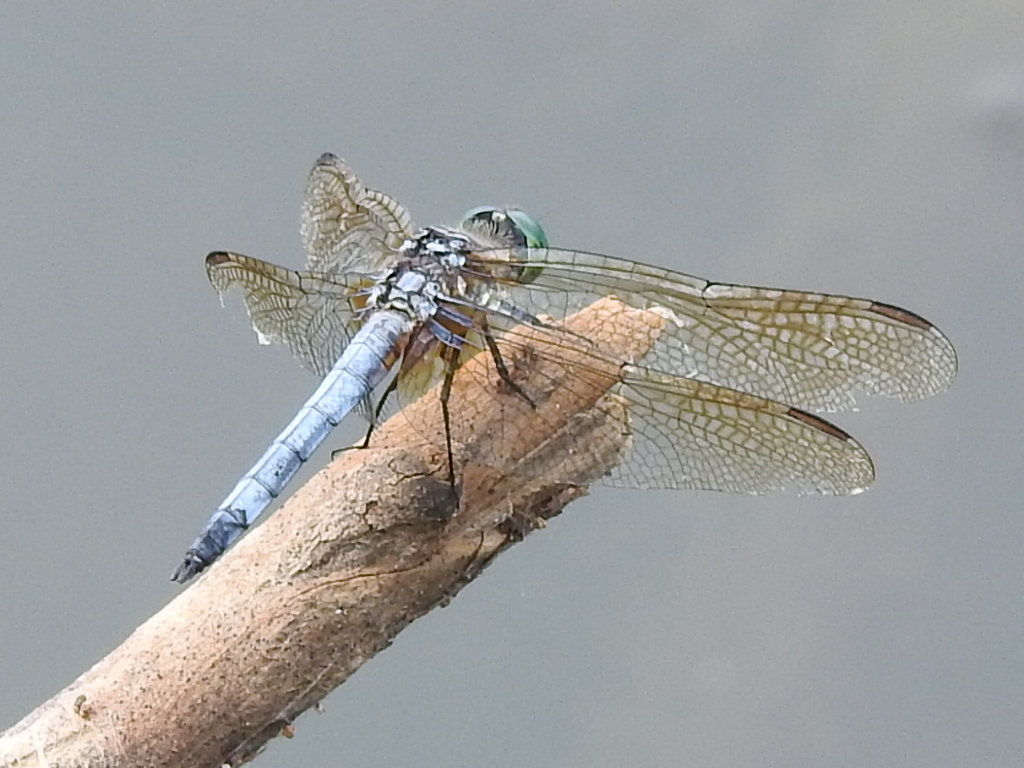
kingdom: Animalia
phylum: Arthropoda
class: Insecta
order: Odonata
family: Libellulidae
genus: Pachydiplax
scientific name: Pachydiplax longipennis
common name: Blue dasher
